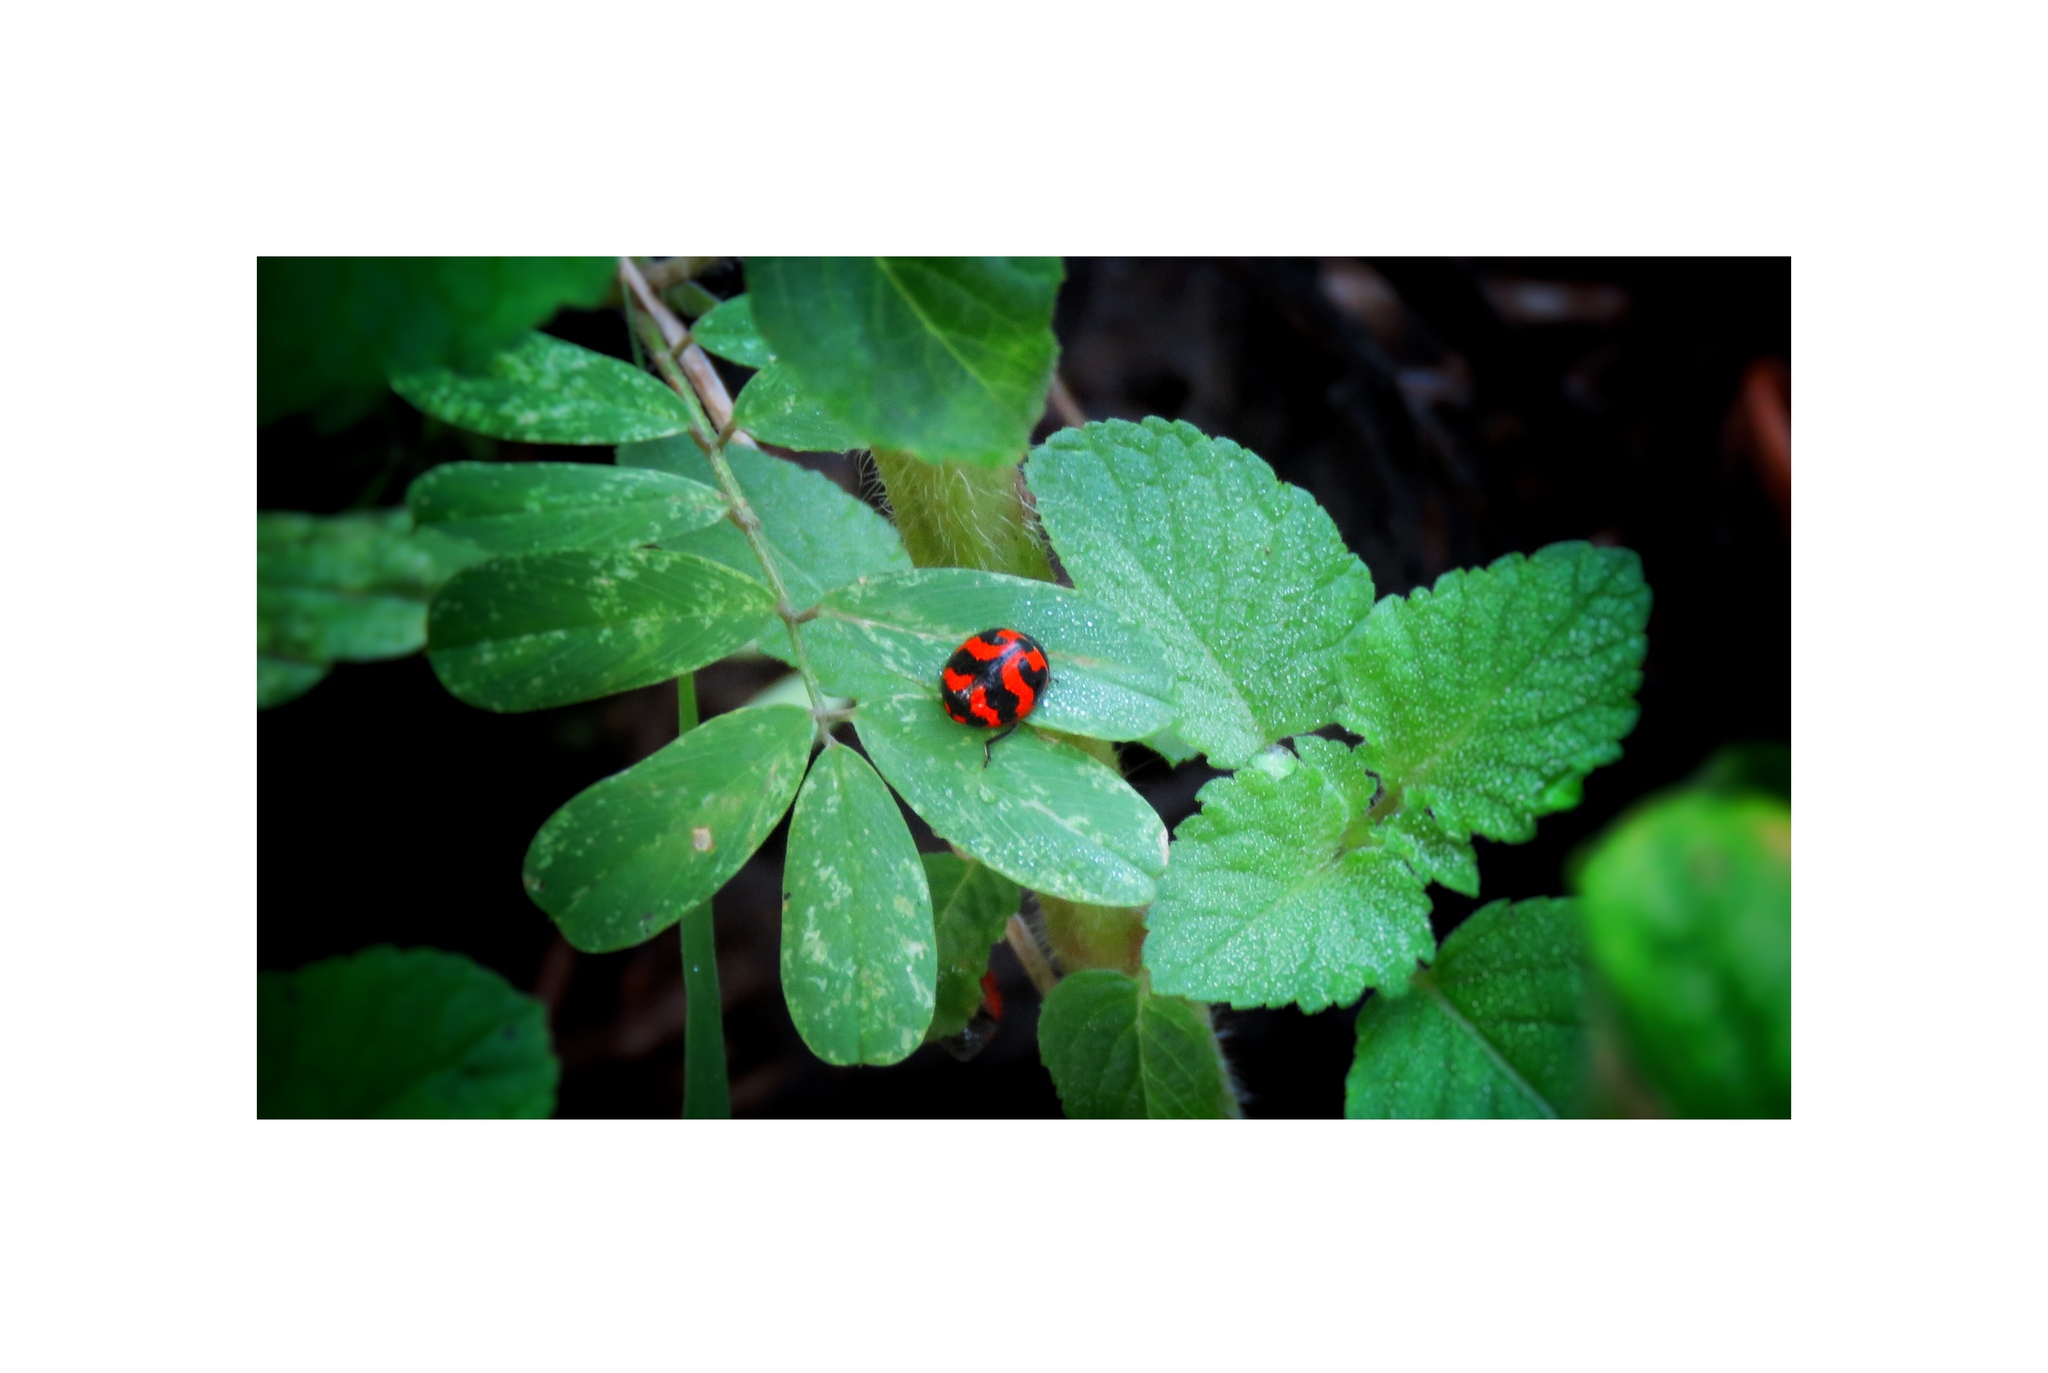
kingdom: Animalia
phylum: Arthropoda
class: Insecta
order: Coleoptera
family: Coccinellidae
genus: Coccinella
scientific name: Coccinella transversalis
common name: Transverse lady beetle
